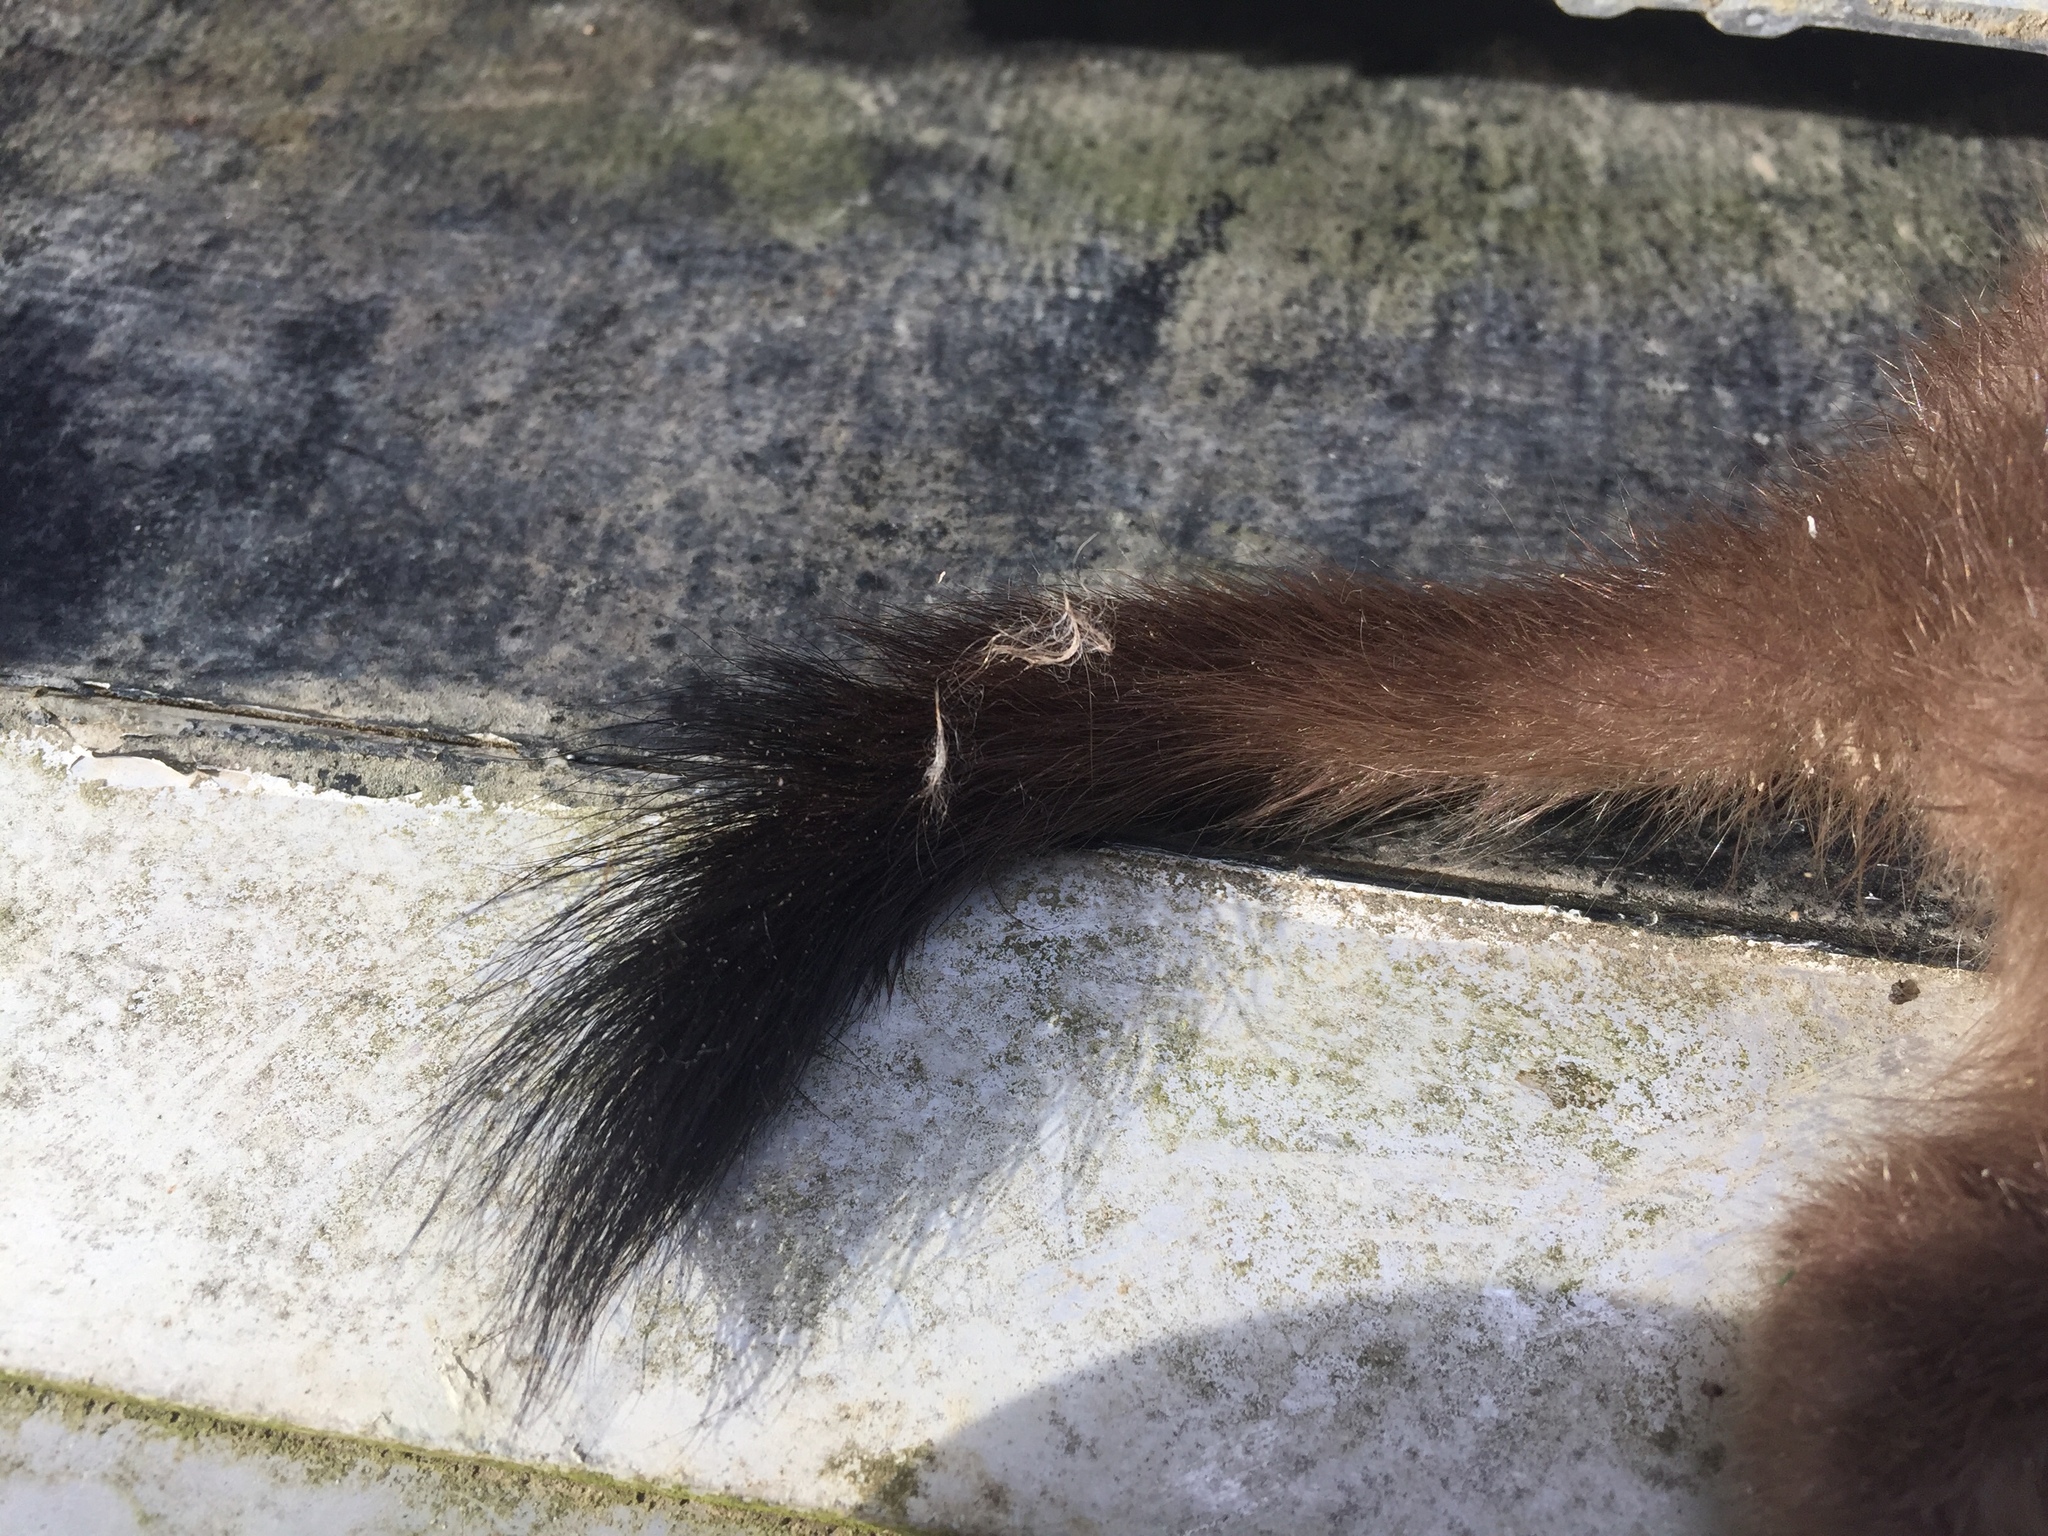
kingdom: Animalia
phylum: Chordata
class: Mammalia
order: Carnivora
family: Mustelidae
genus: Mustela
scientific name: Mustela erminea
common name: Stoat
